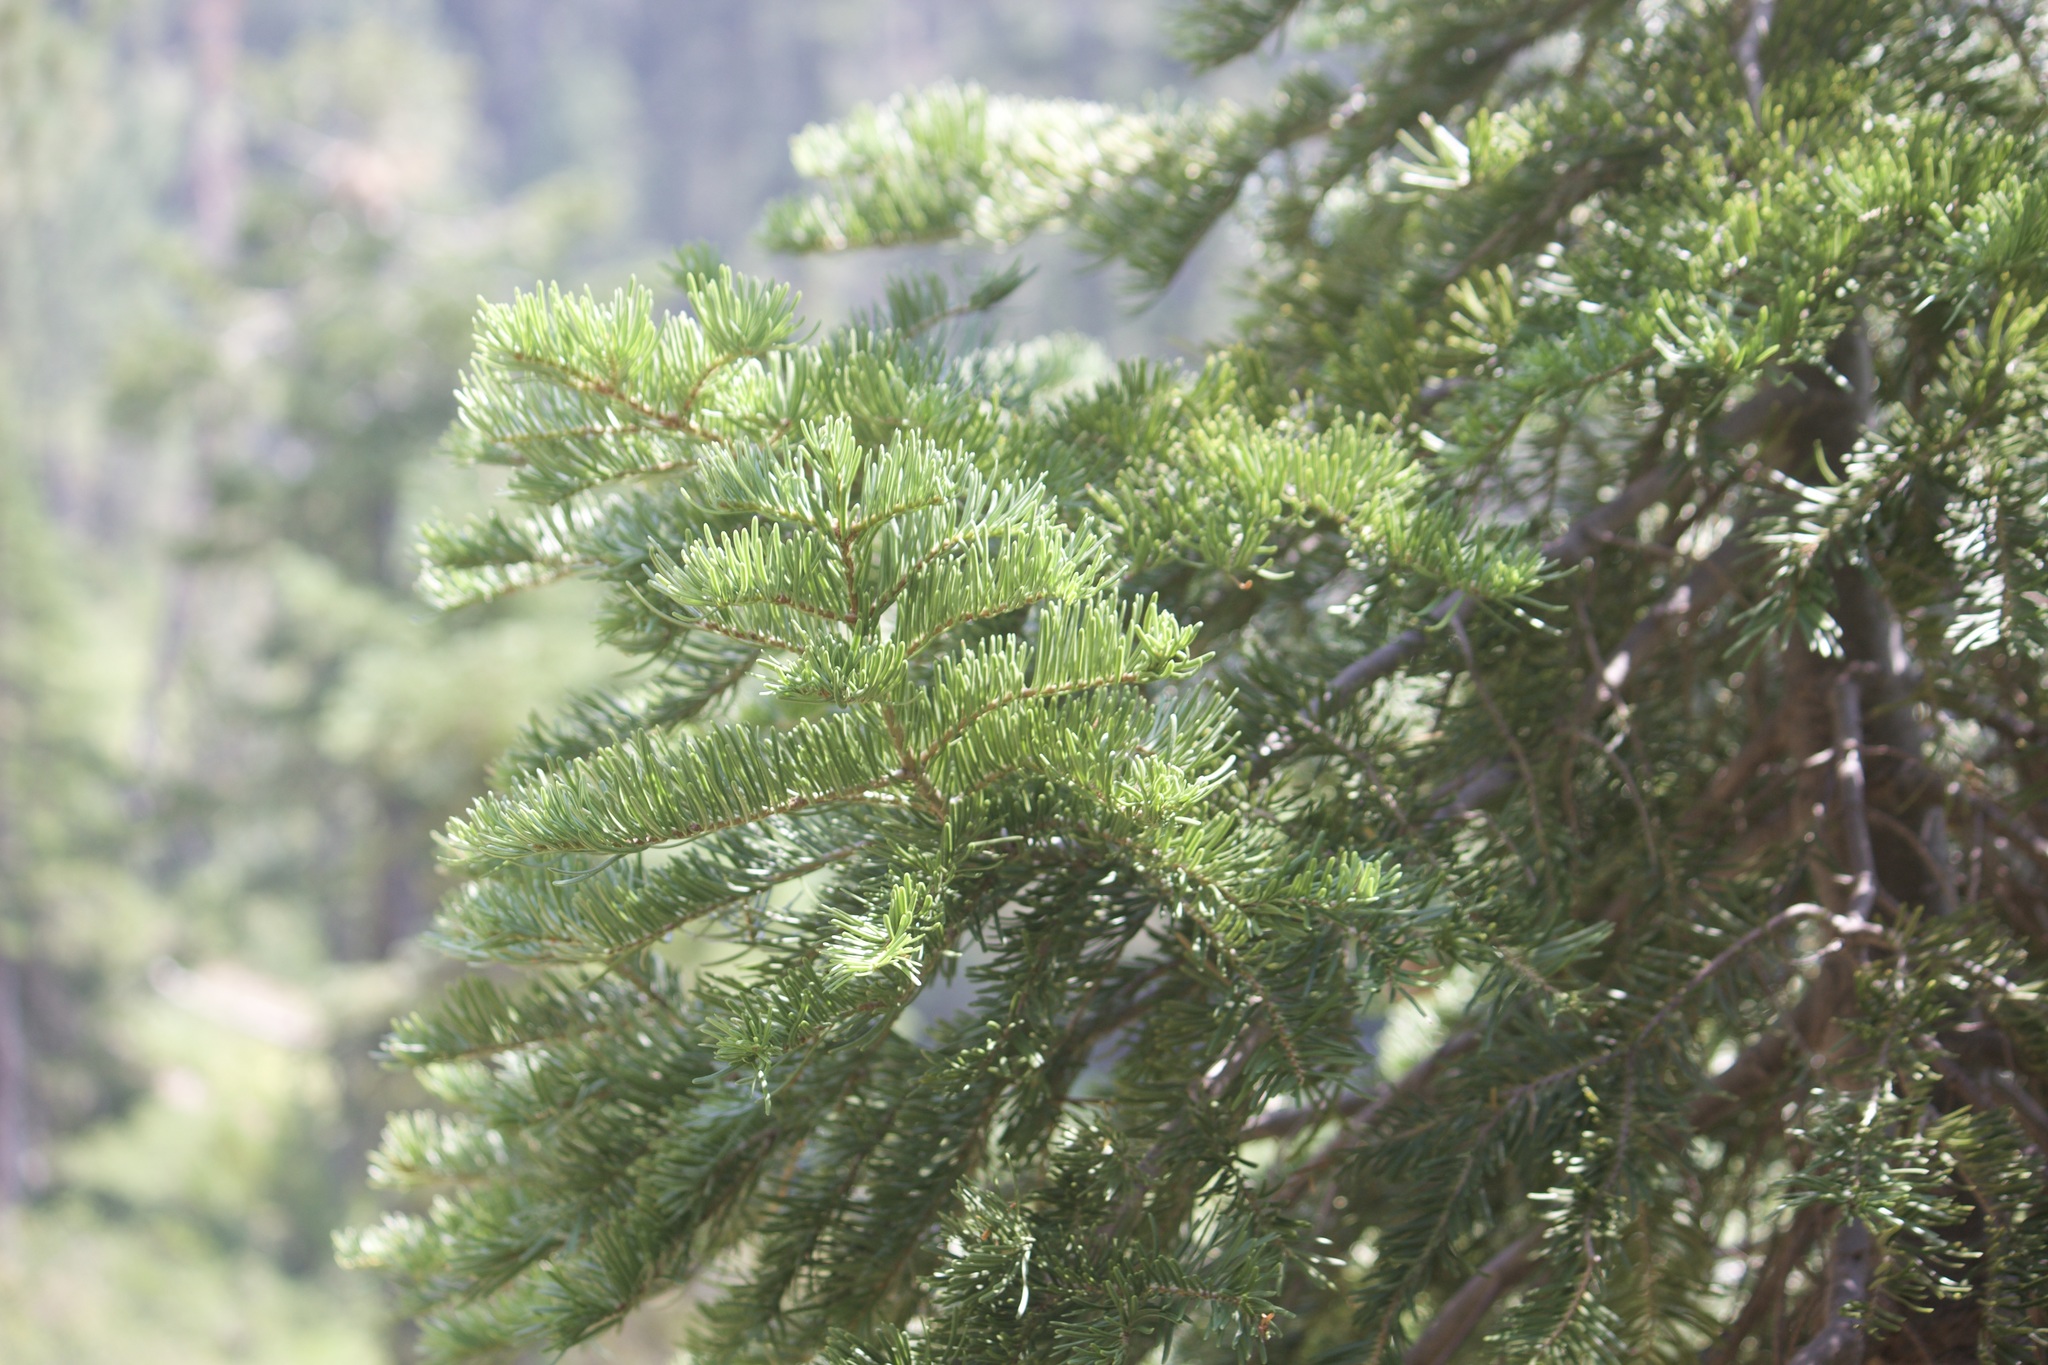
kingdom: Plantae
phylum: Tracheophyta
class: Pinopsida
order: Pinales
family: Pinaceae
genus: Abies
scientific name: Abies concolor
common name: Colorado fir
